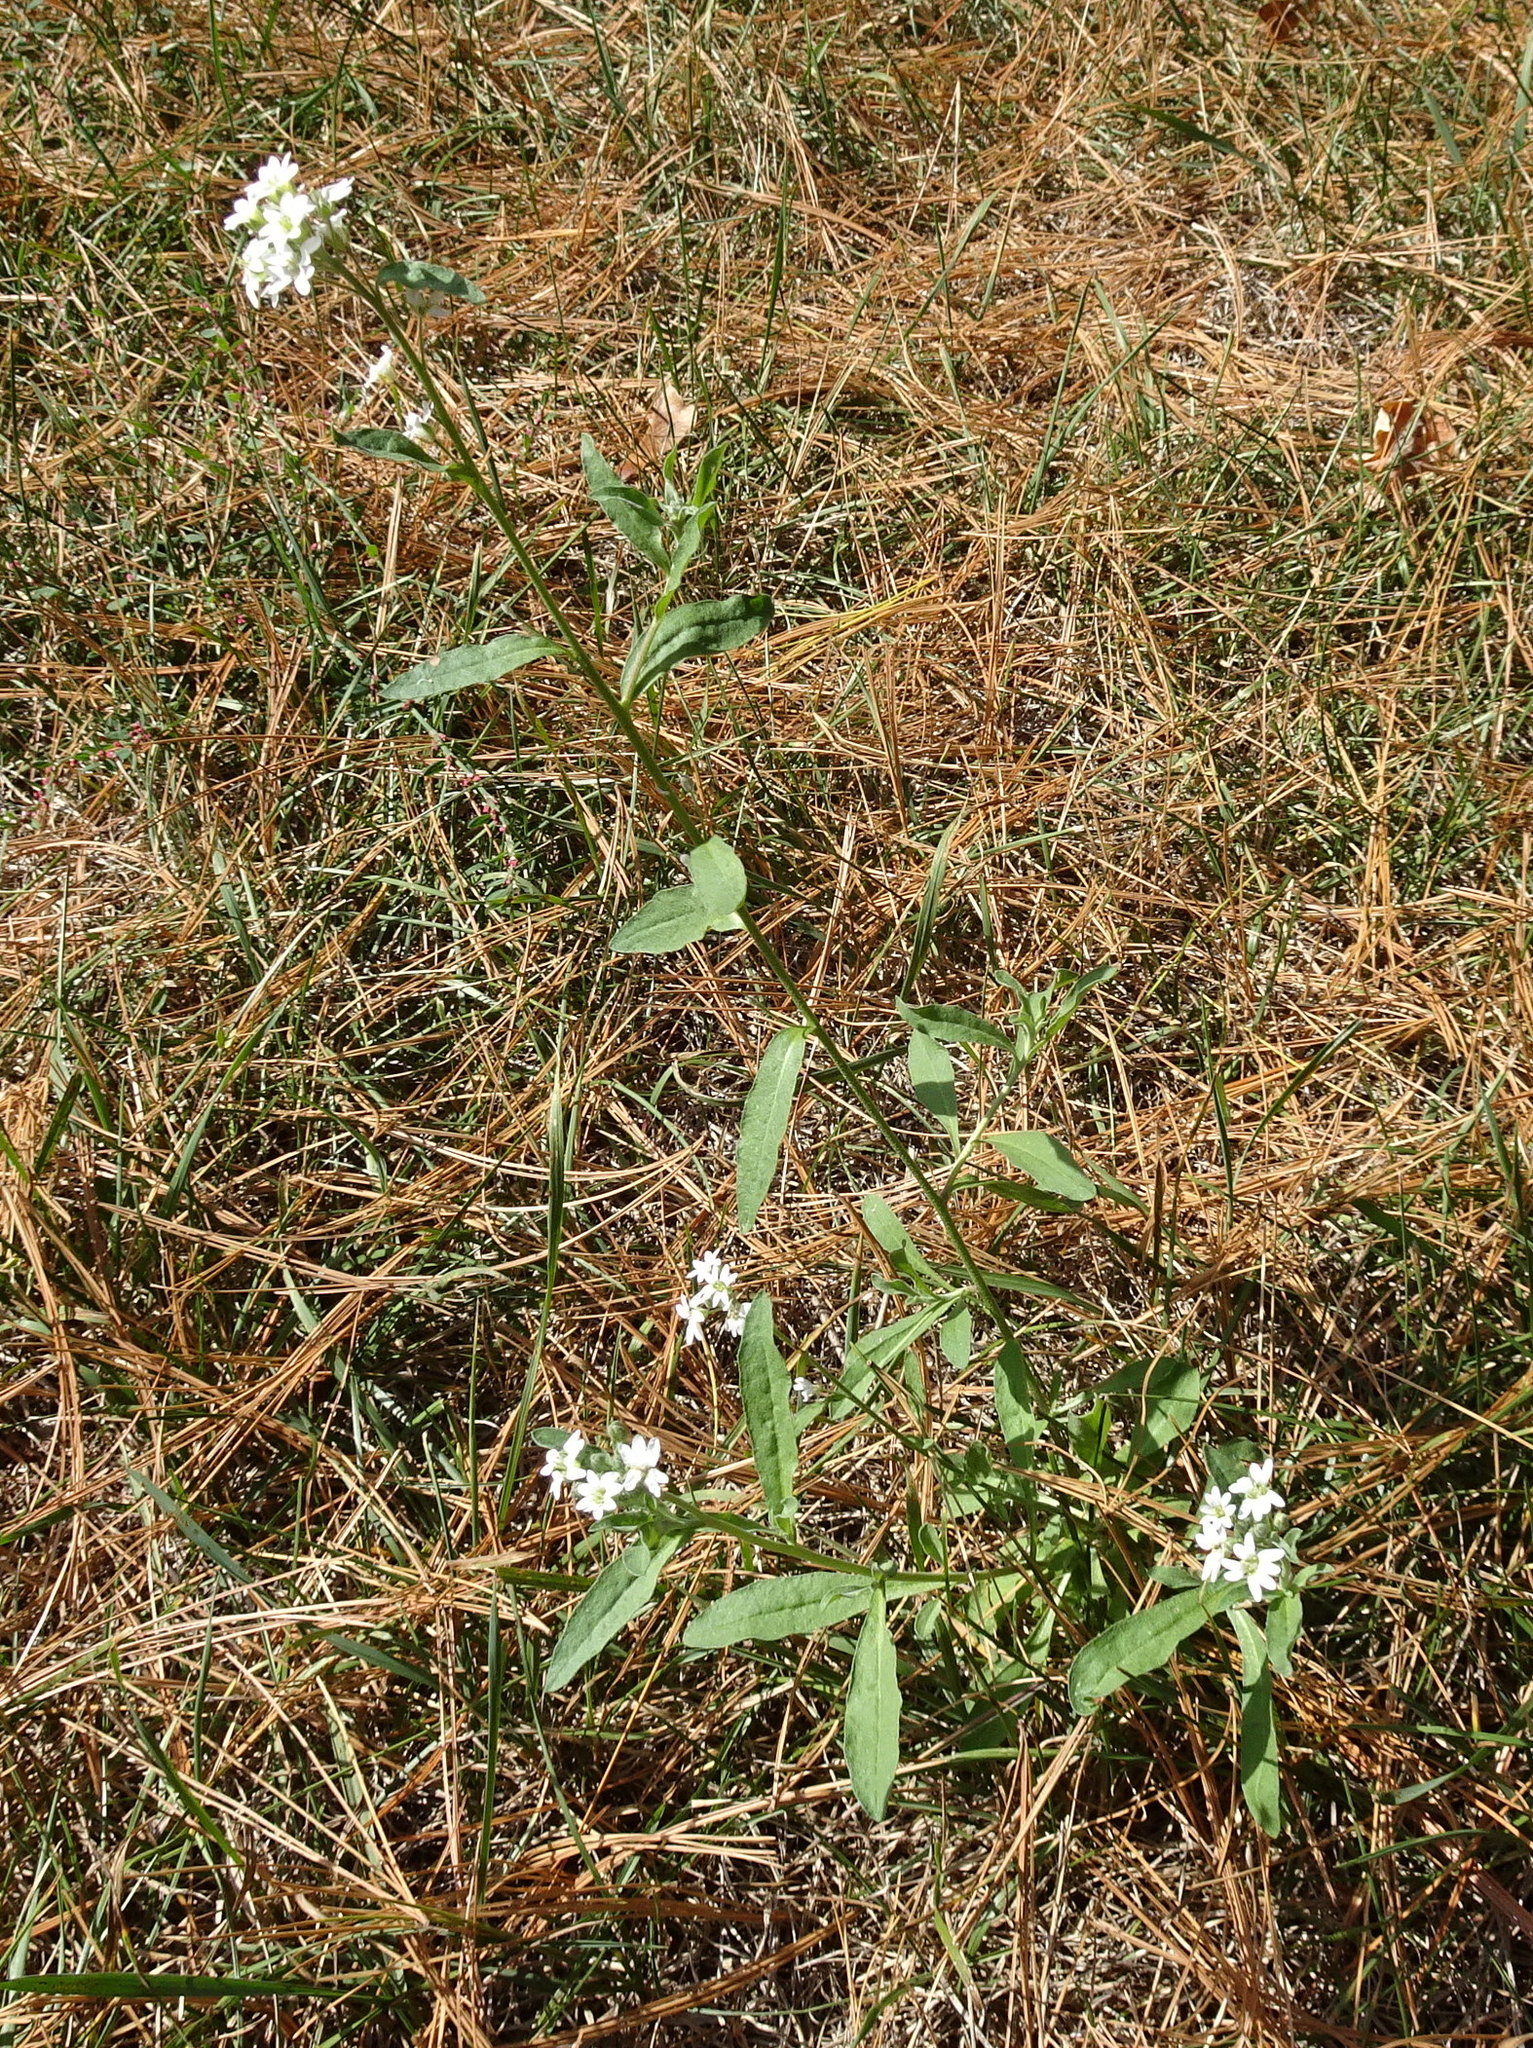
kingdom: Plantae
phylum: Tracheophyta
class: Magnoliopsida
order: Brassicales
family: Brassicaceae
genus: Berteroa
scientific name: Berteroa incana
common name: Hoary alison
